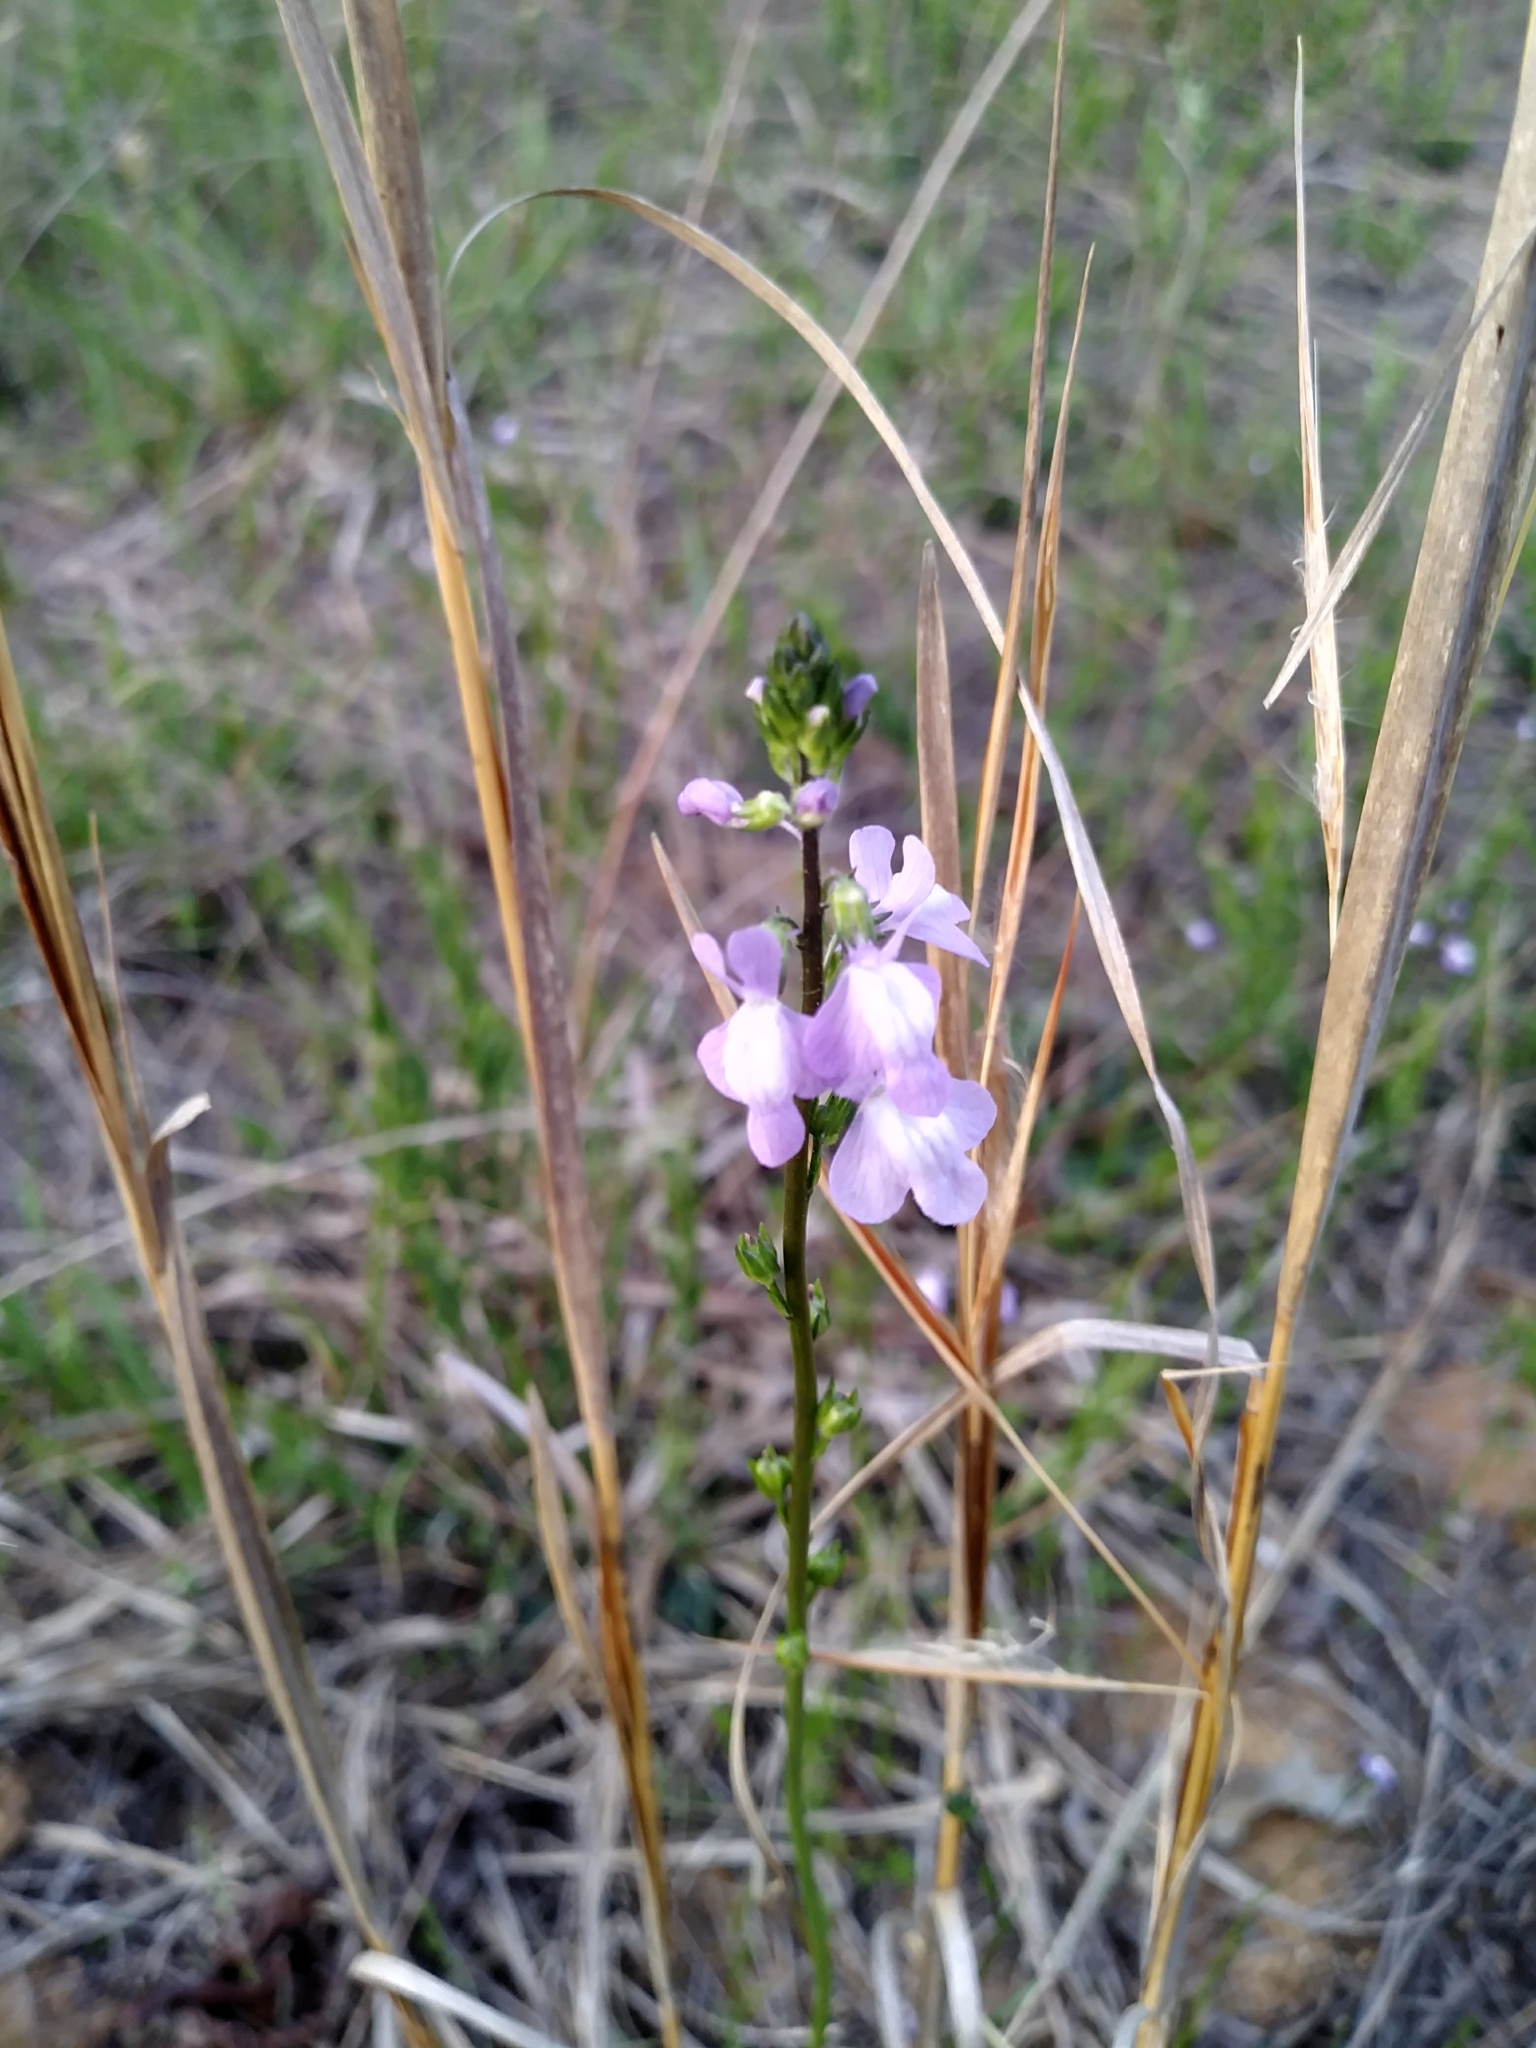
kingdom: Plantae
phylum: Tracheophyta
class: Magnoliopsida
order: Lamiales
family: Plantaginaceae
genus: Nuttallanthus
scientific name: Nuttallanthus canadensis
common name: Blue toadflax
